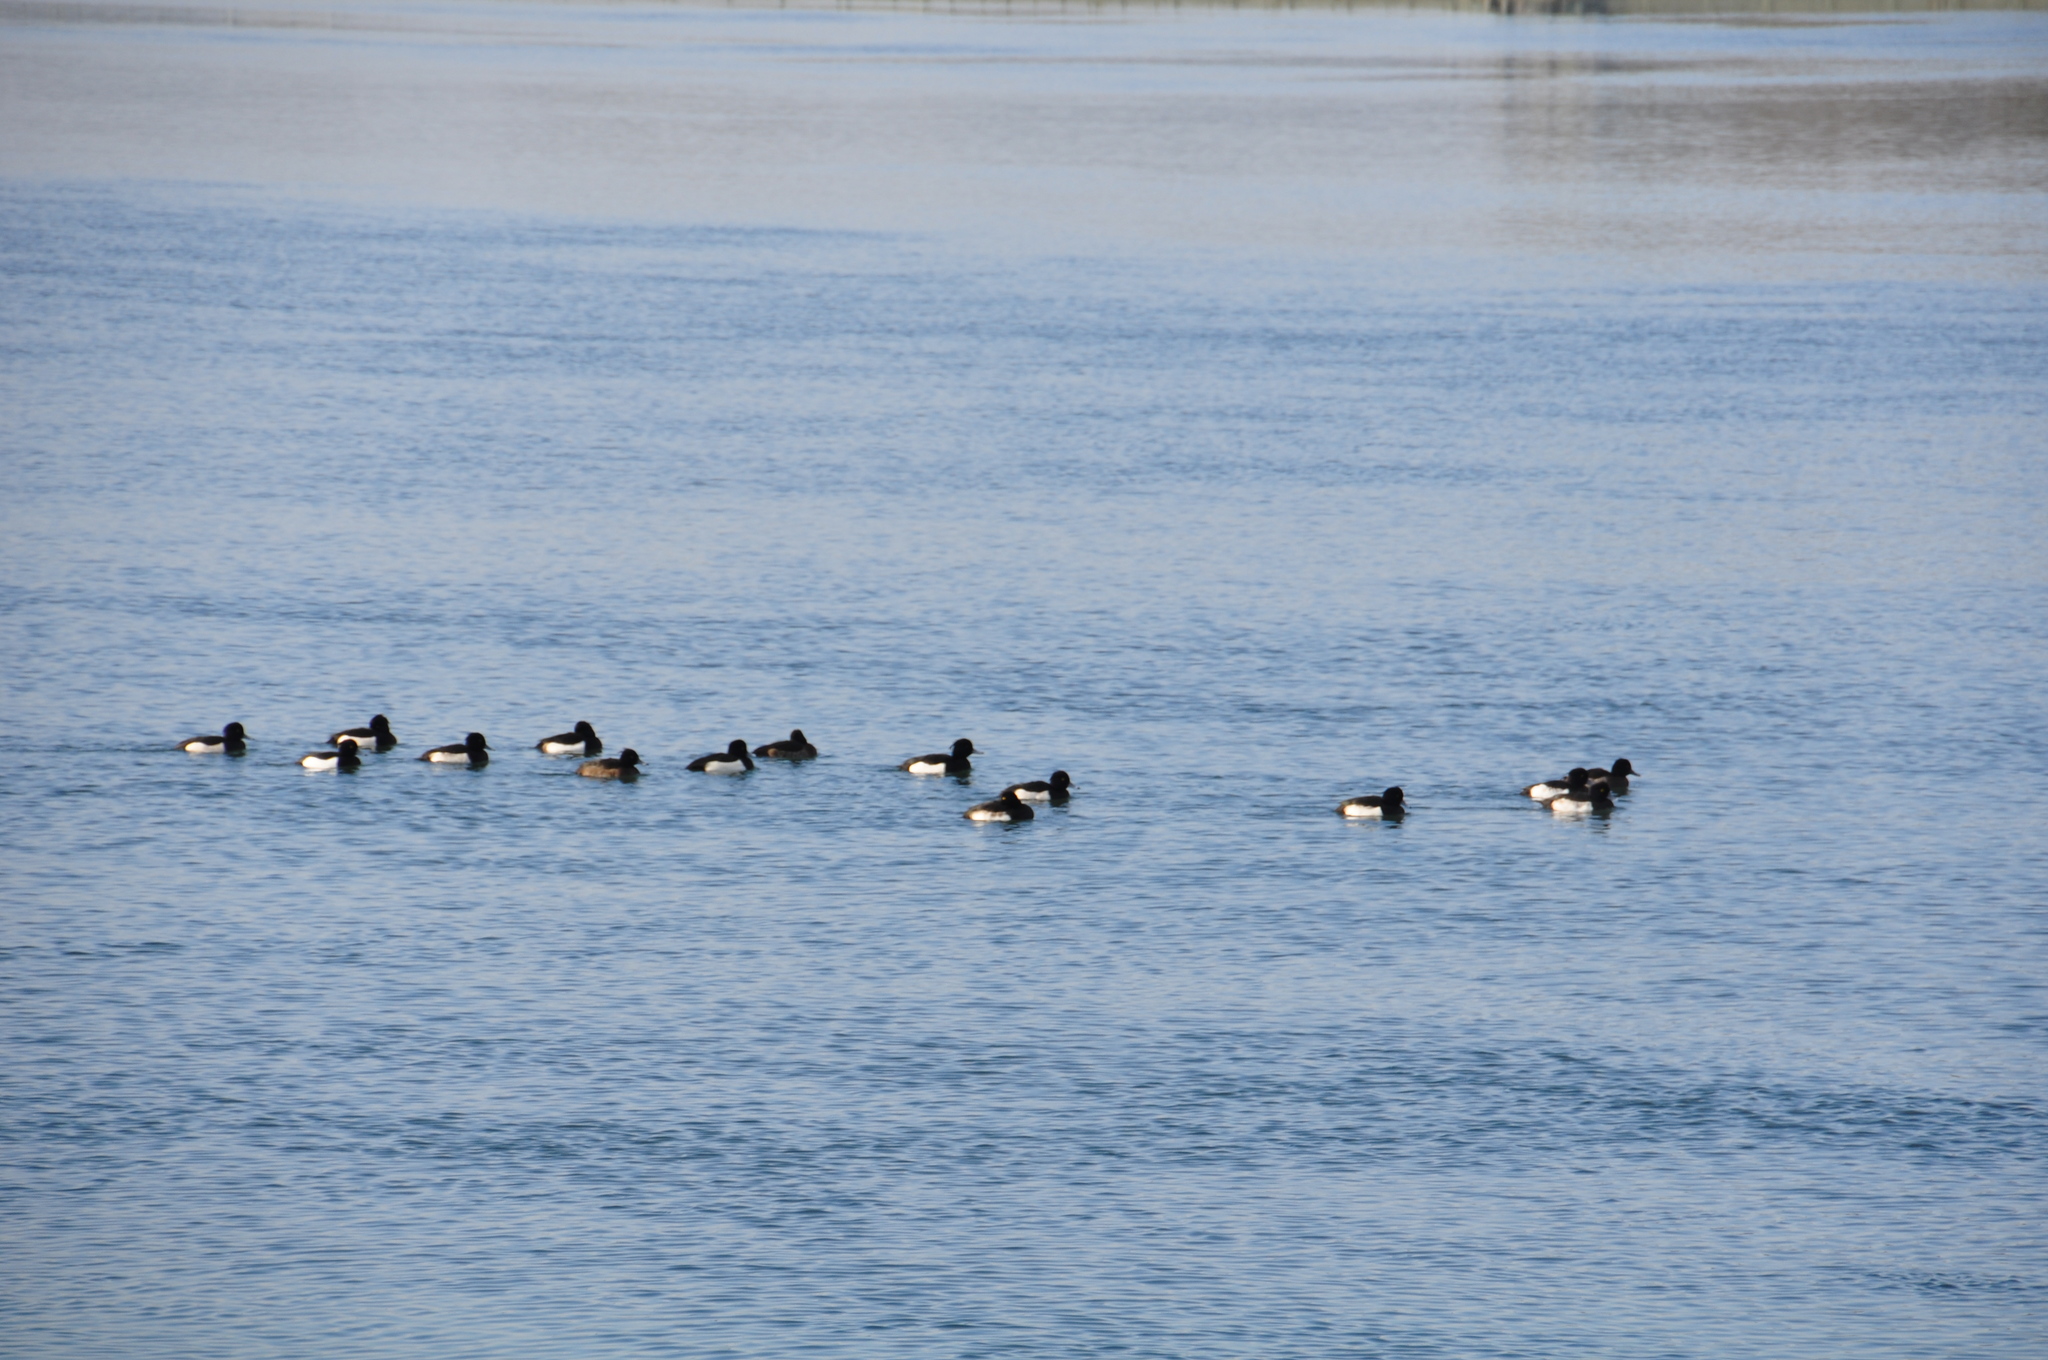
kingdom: Animalia
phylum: Chordata
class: Aves
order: Anseriformes
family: Anatidae
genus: Aythya
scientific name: Aythya fuligula
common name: Tufted duck
